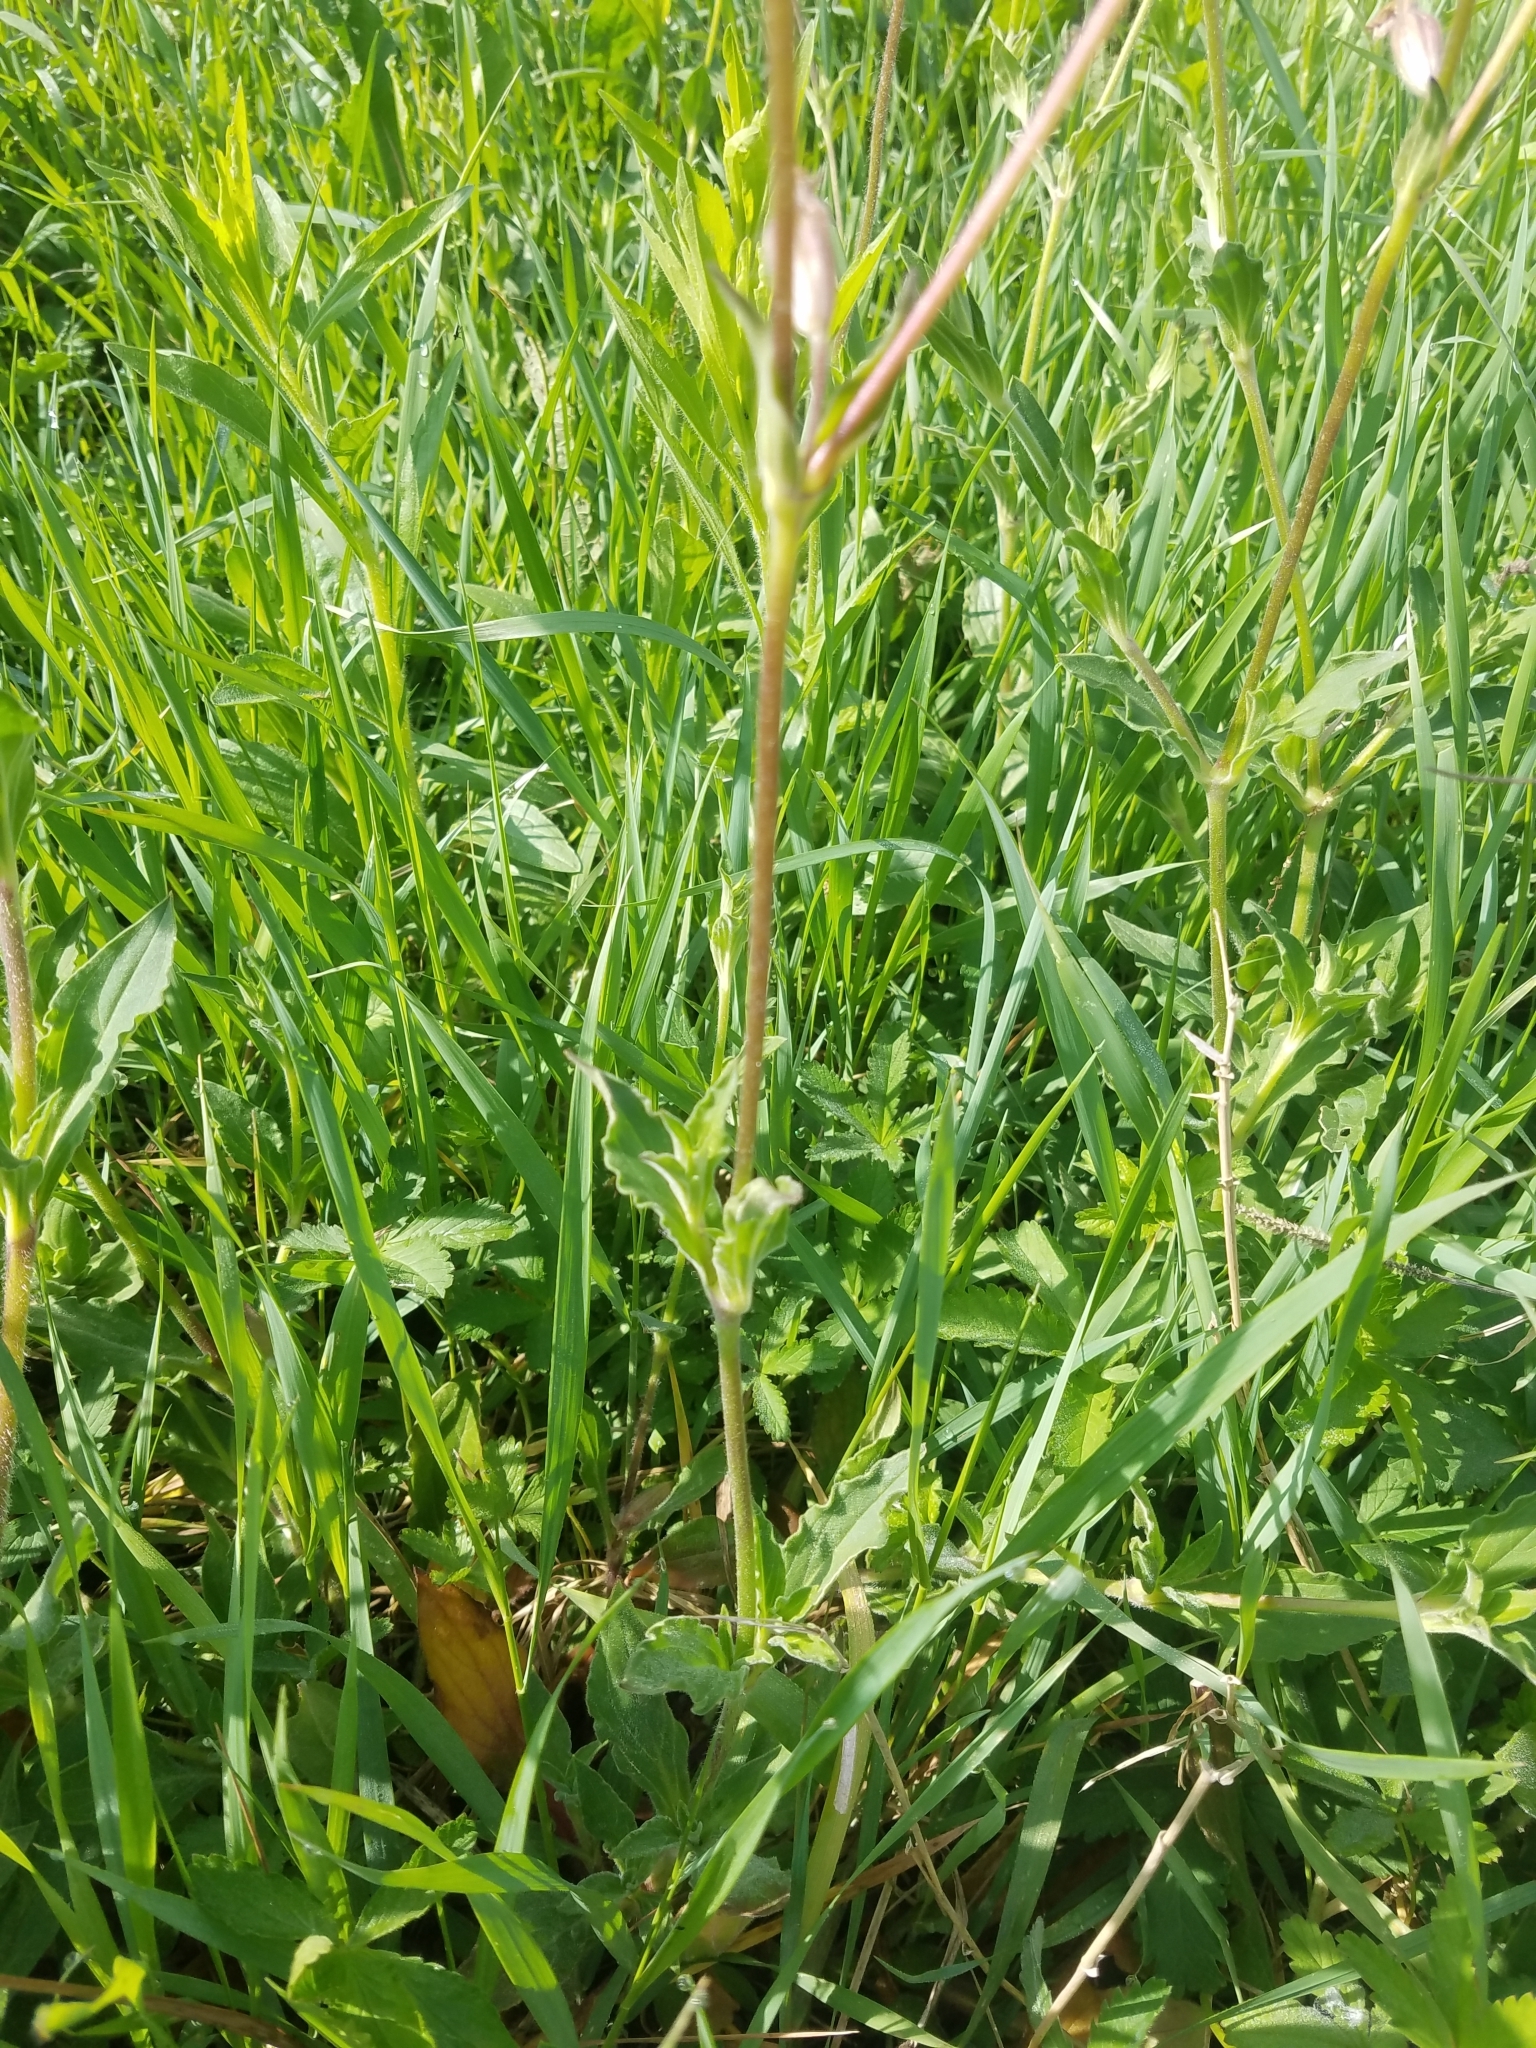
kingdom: Plantae
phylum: Tracheophyta
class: Magnoliopsida
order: Caryophyllales
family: Caryophyllaceae
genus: Silene
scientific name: Silene latifolia
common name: White campion
